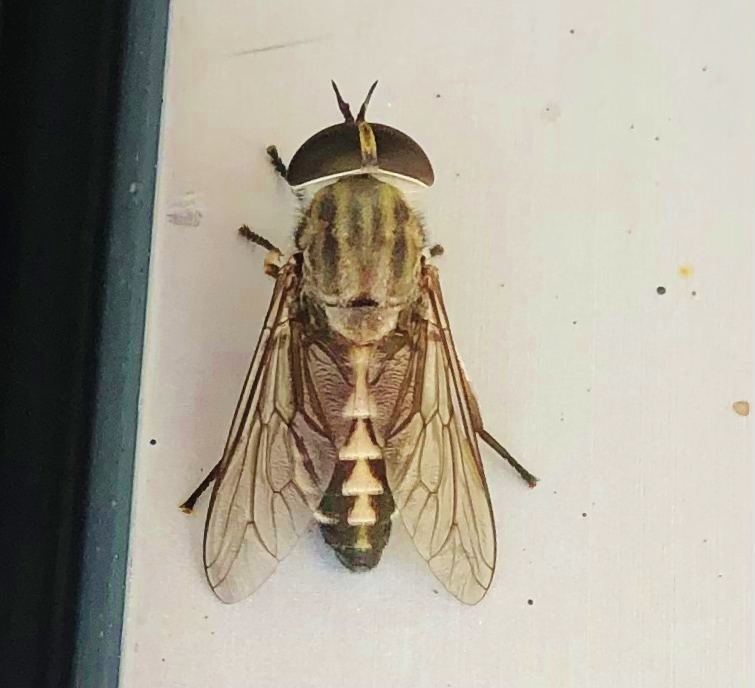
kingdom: Animalia
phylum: Arthropoda
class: Insecta
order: Diptera
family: Tabanidae
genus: Tabanus
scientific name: Tabanus petiolatus
